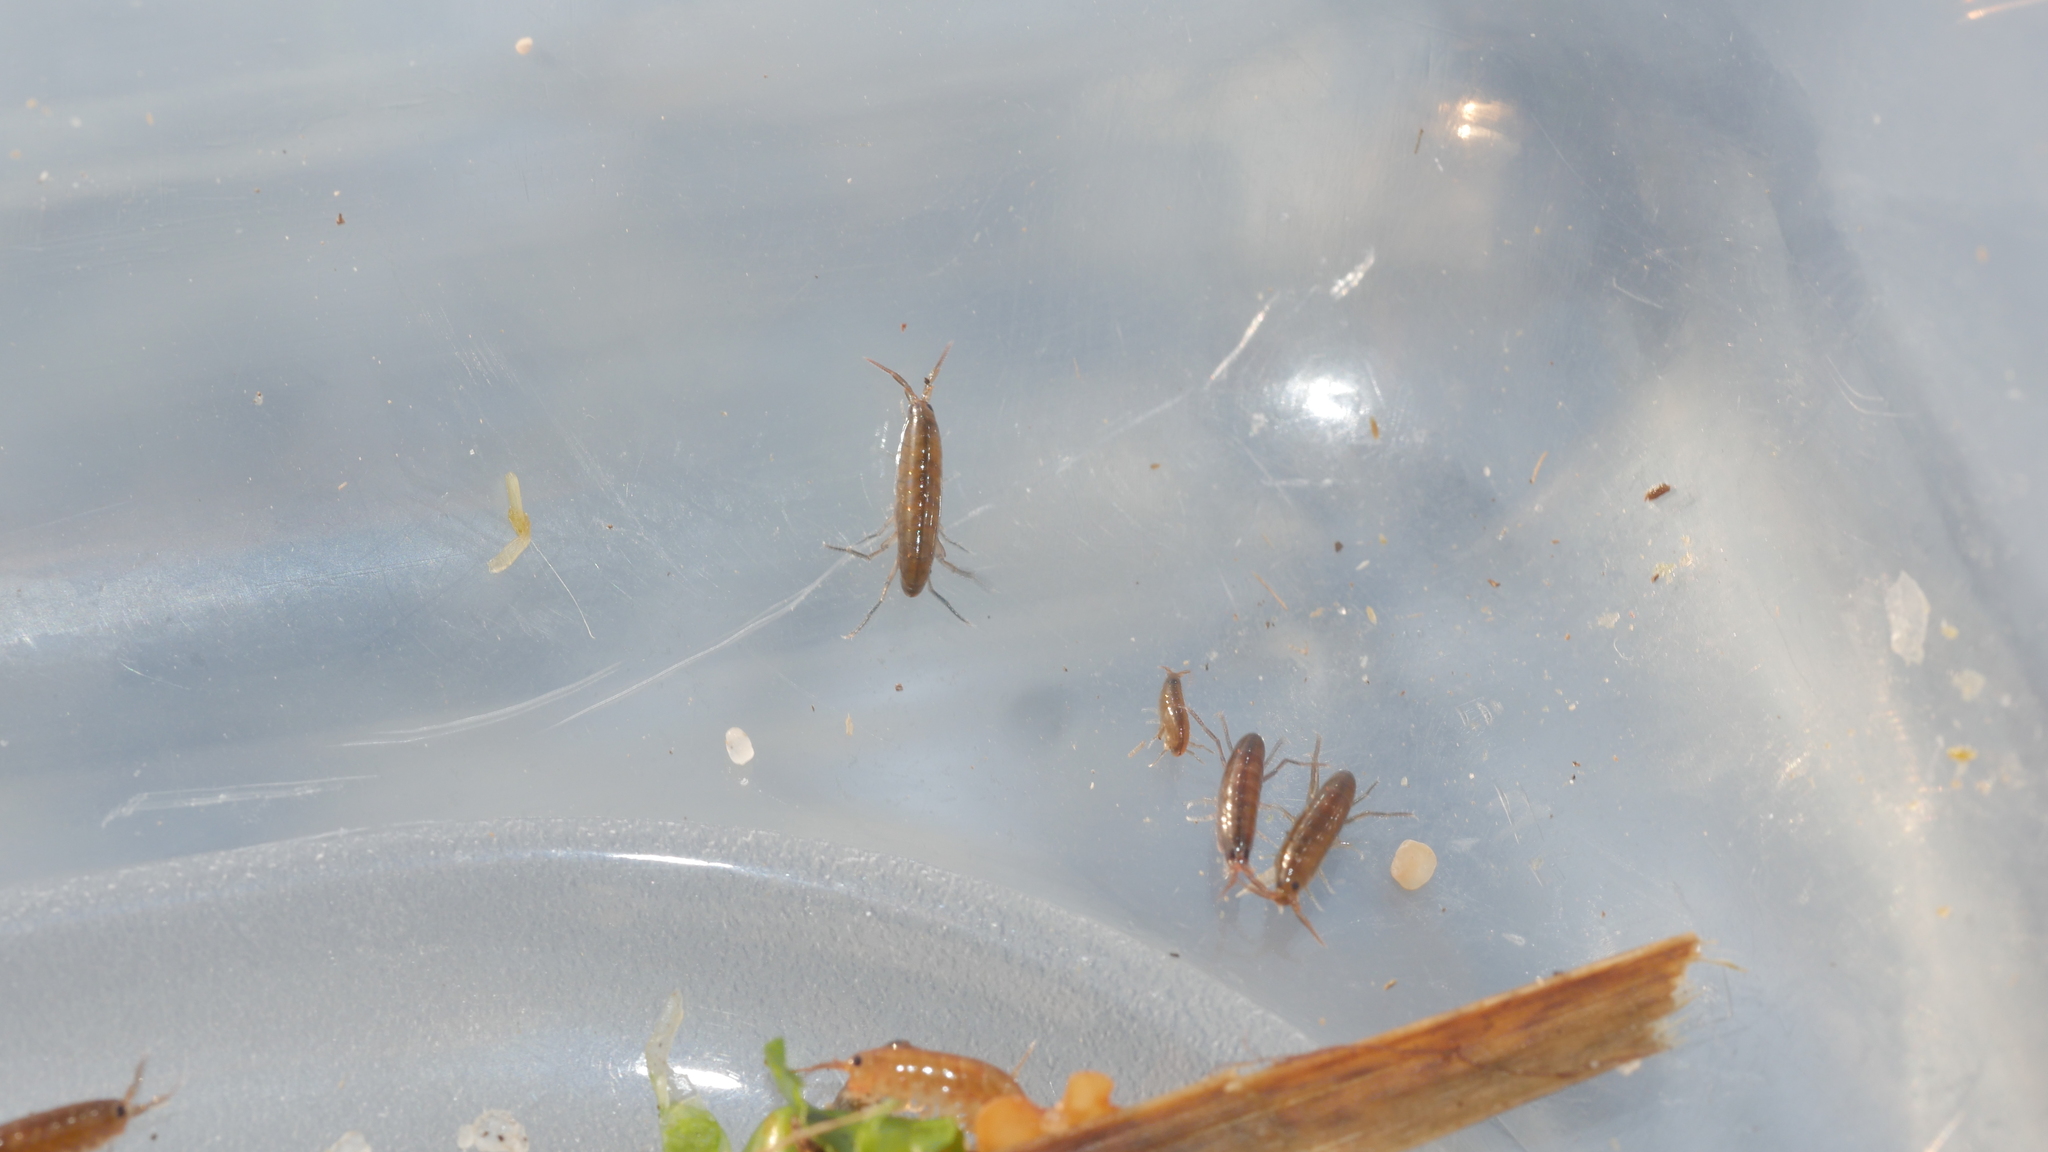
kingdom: Animalia
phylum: Arthropoda
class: Malacostraca
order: Amphipoda
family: Talitridae
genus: Speziorchestia
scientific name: Speziorchestia grillus
